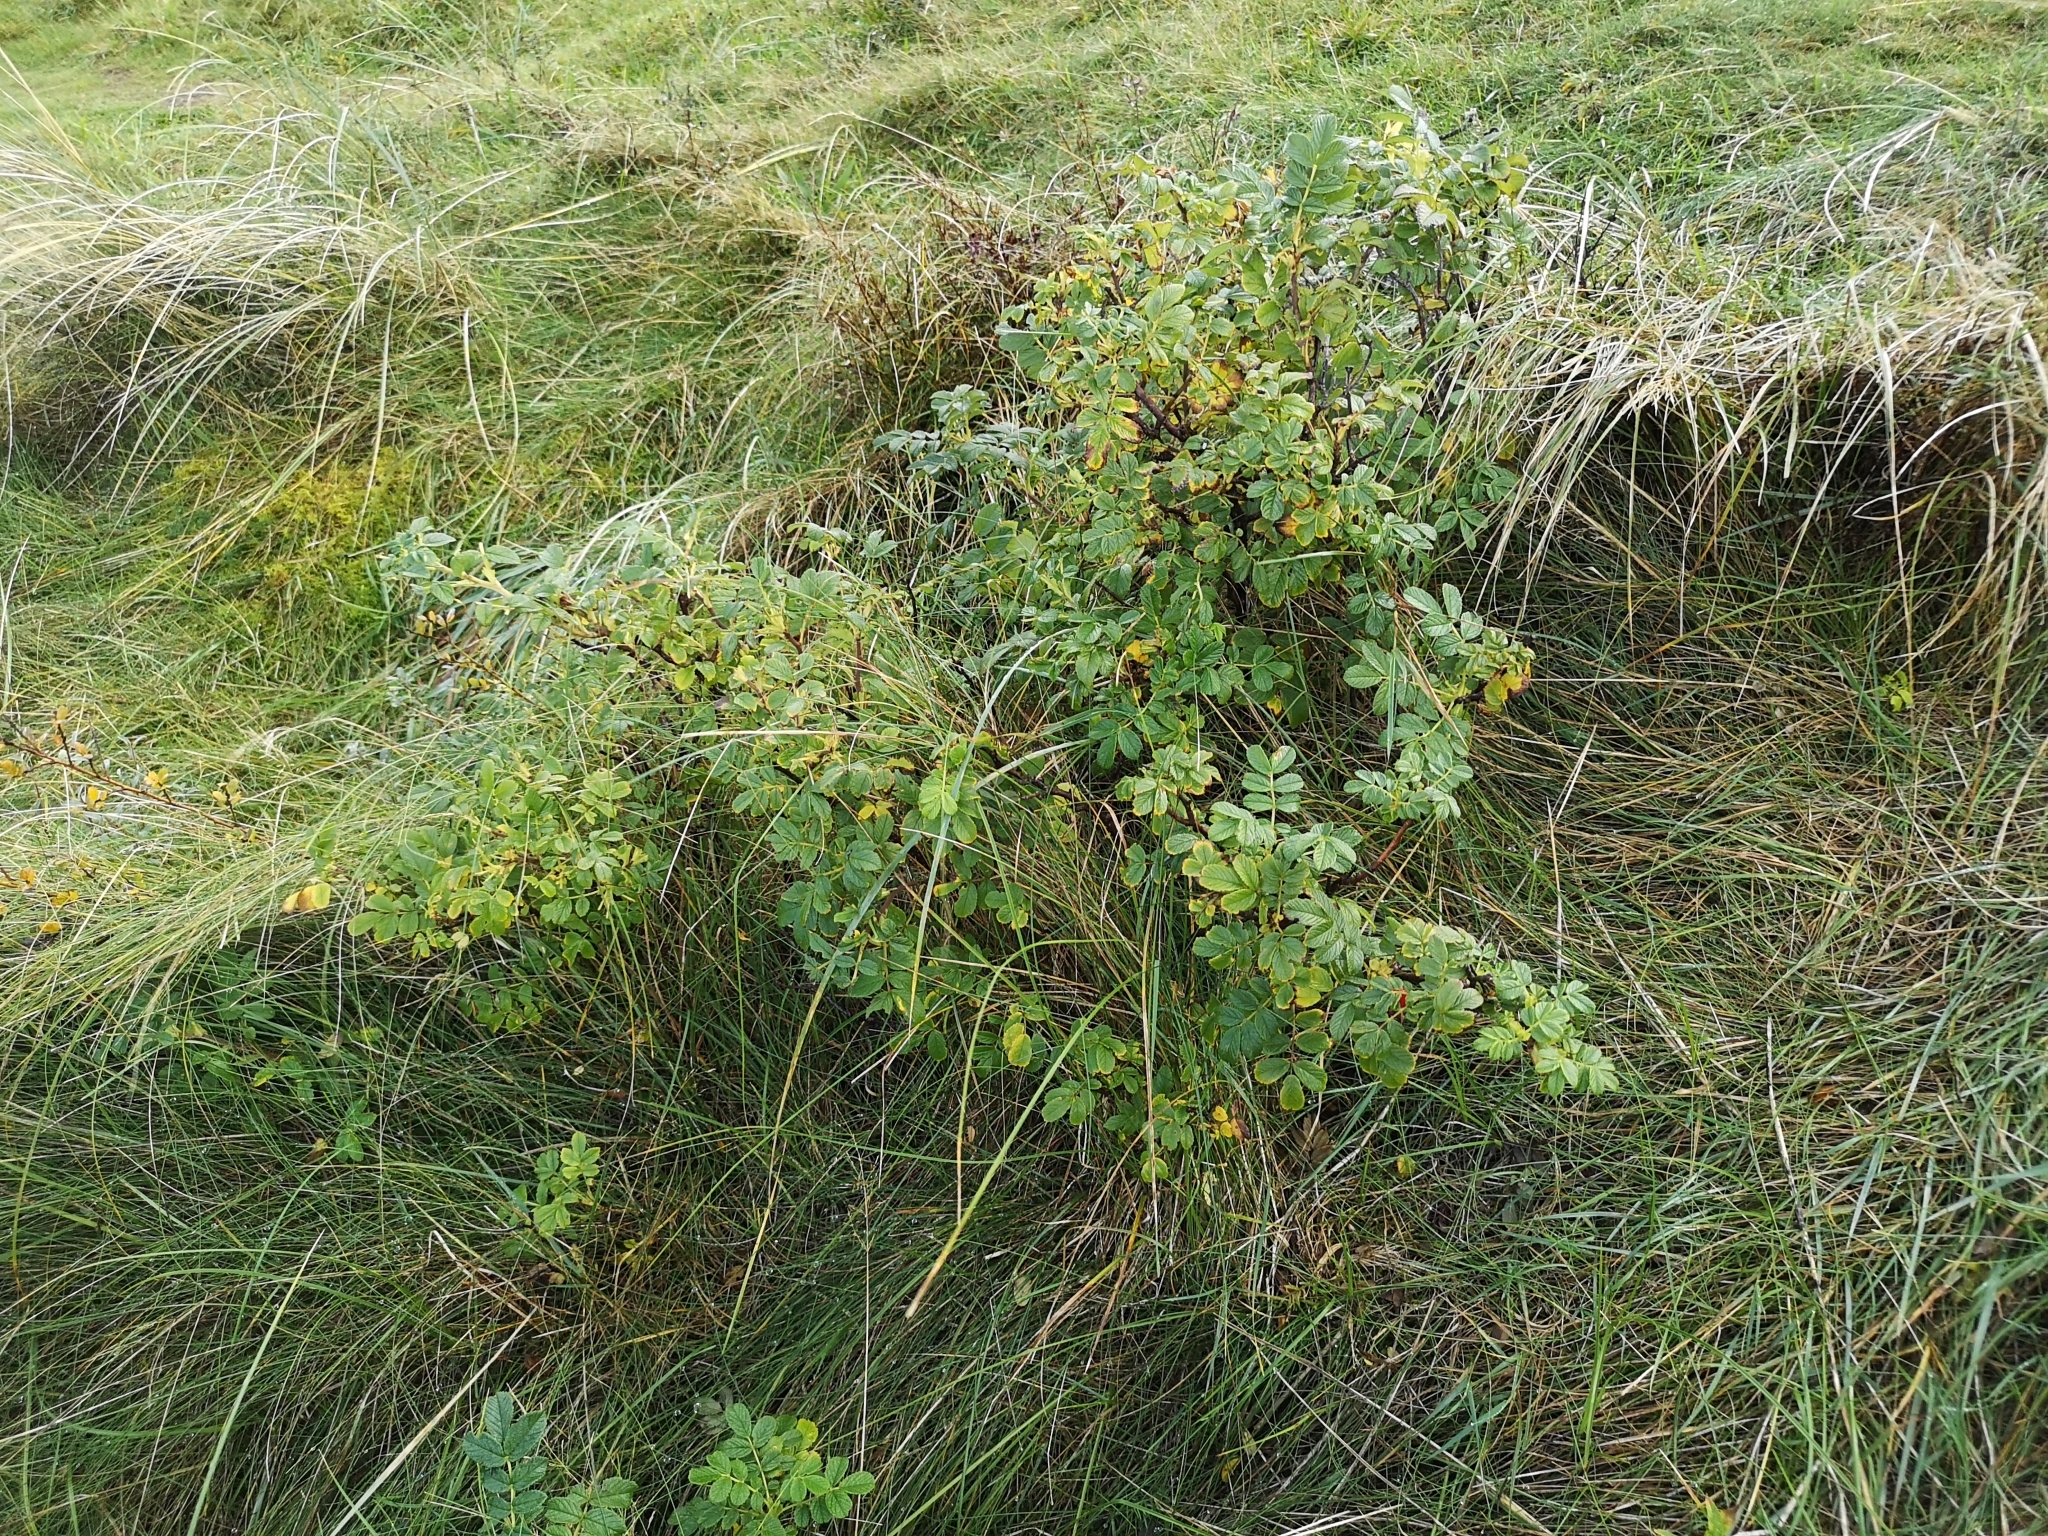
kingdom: Plantae
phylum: Tracheophyta
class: Magnoliopsida
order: Rosales
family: Rosaceae
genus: Rosa
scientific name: Rosa rugosa
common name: Japanese rose
